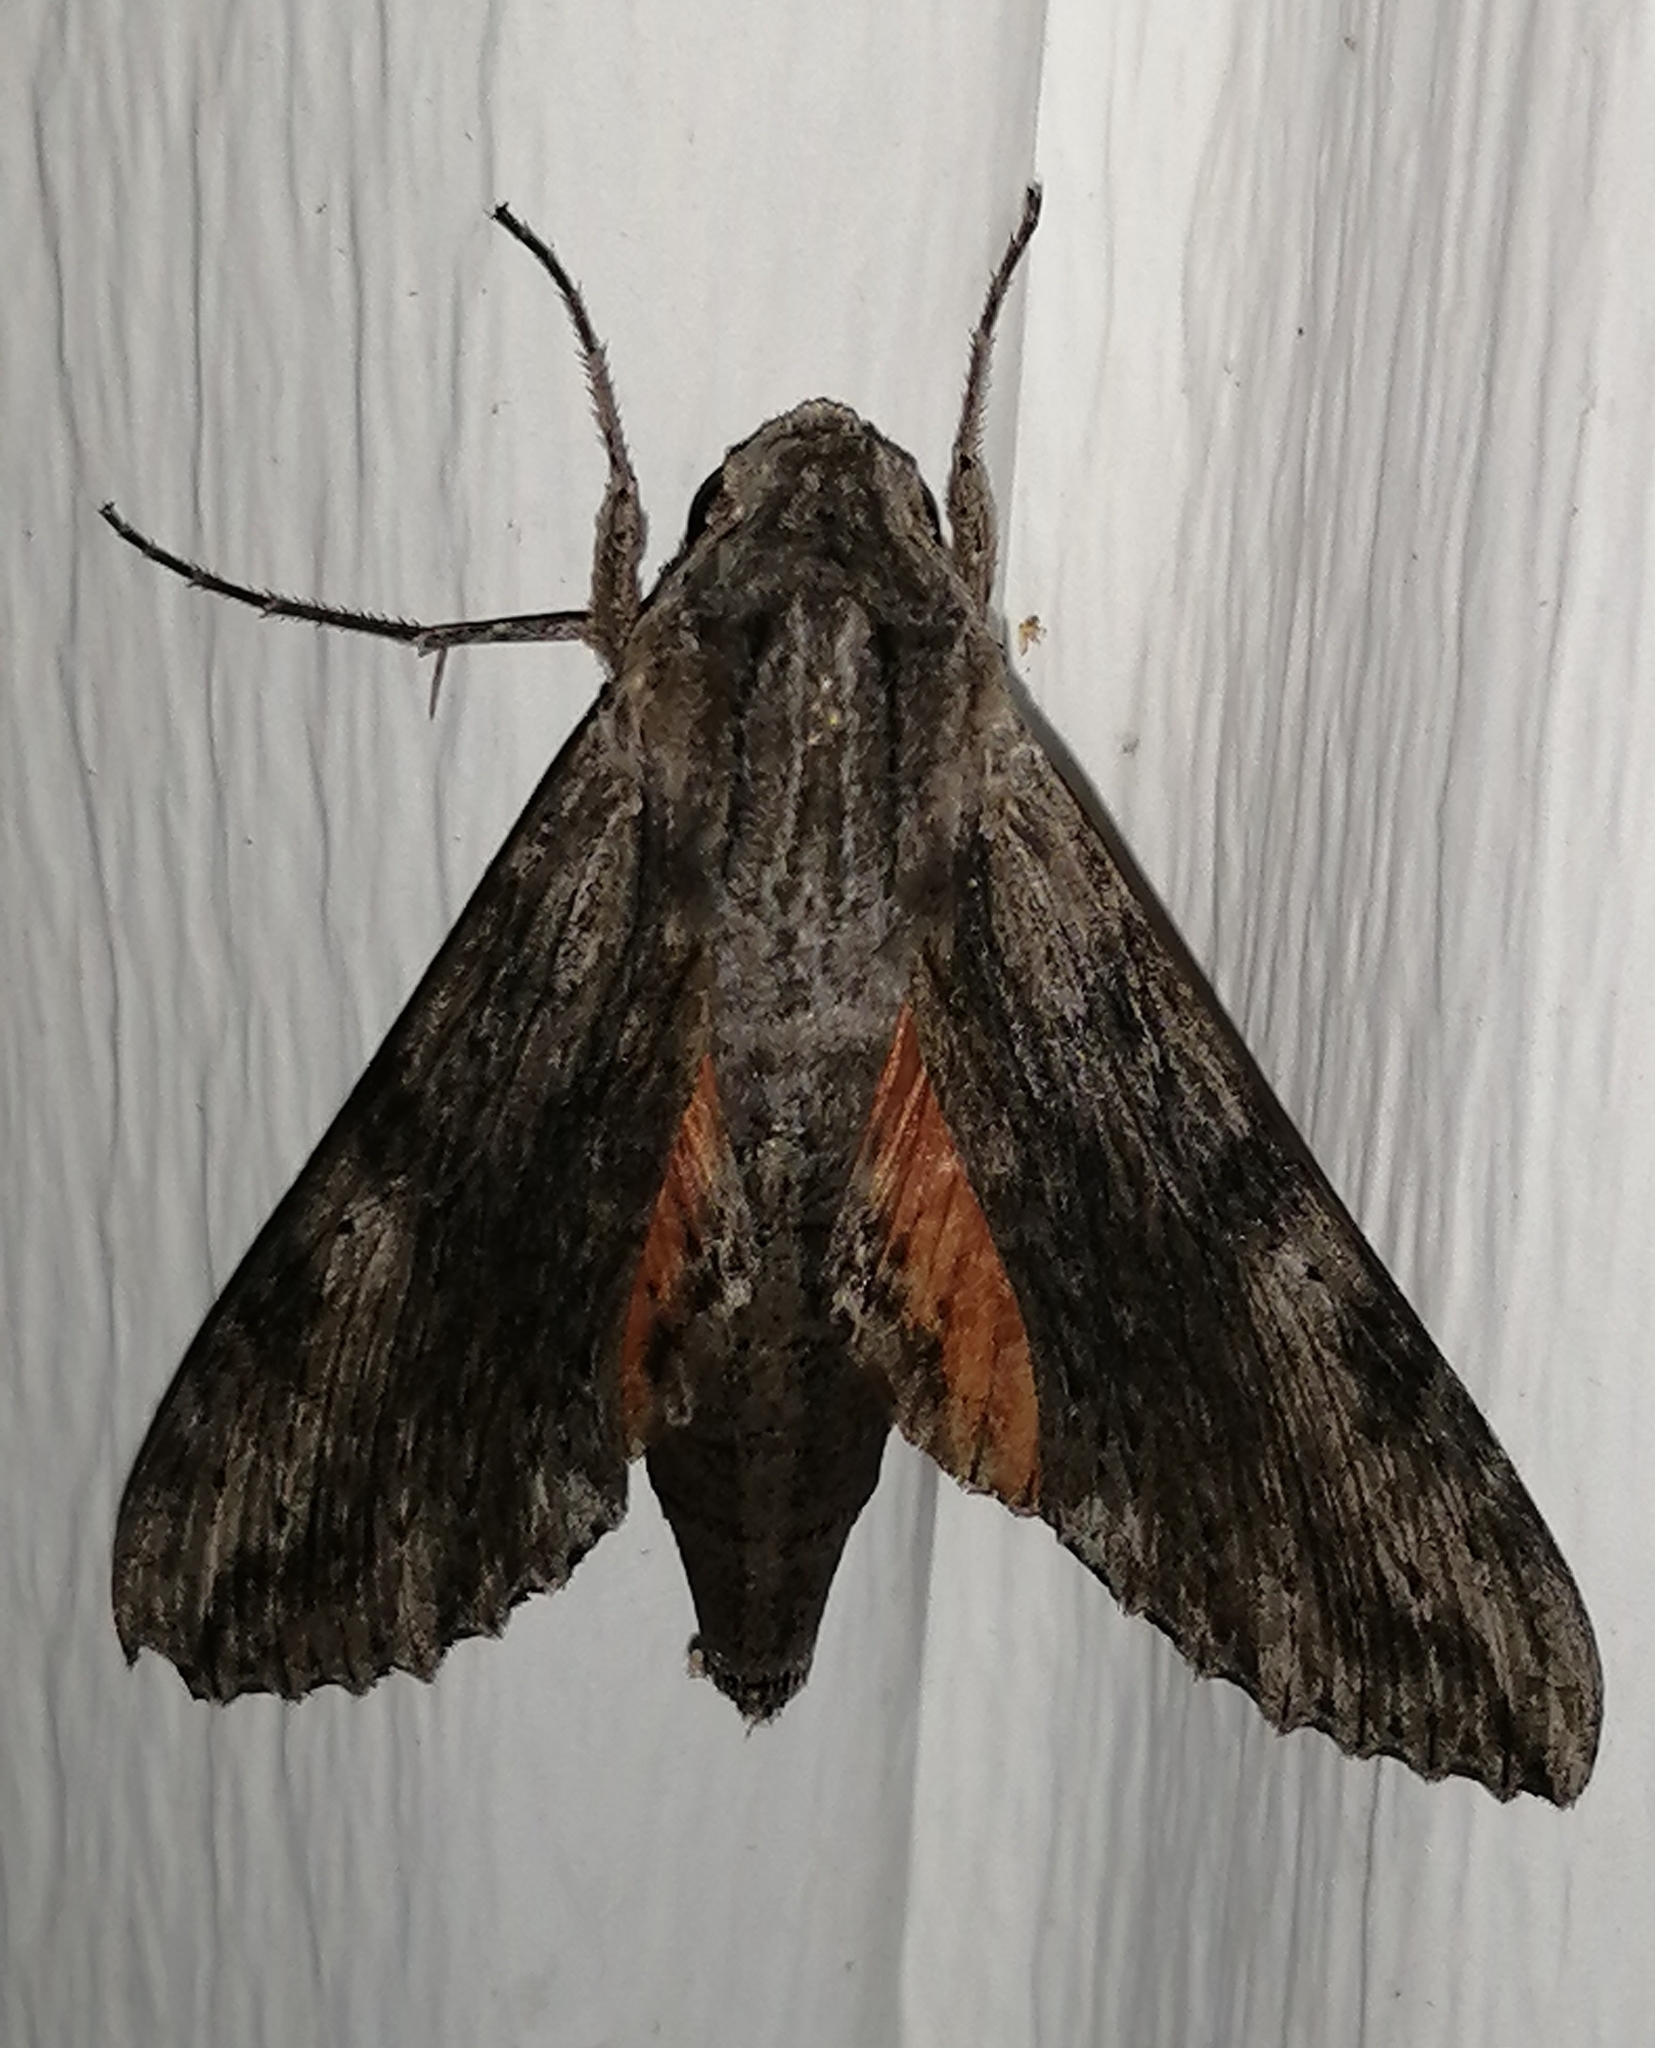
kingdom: Animalia
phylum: Arthropoda
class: Insecta
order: Lepidoptera
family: Sphingidae
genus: Erinnyis
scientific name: Erinnyis obscura
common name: Obscure sphinx
